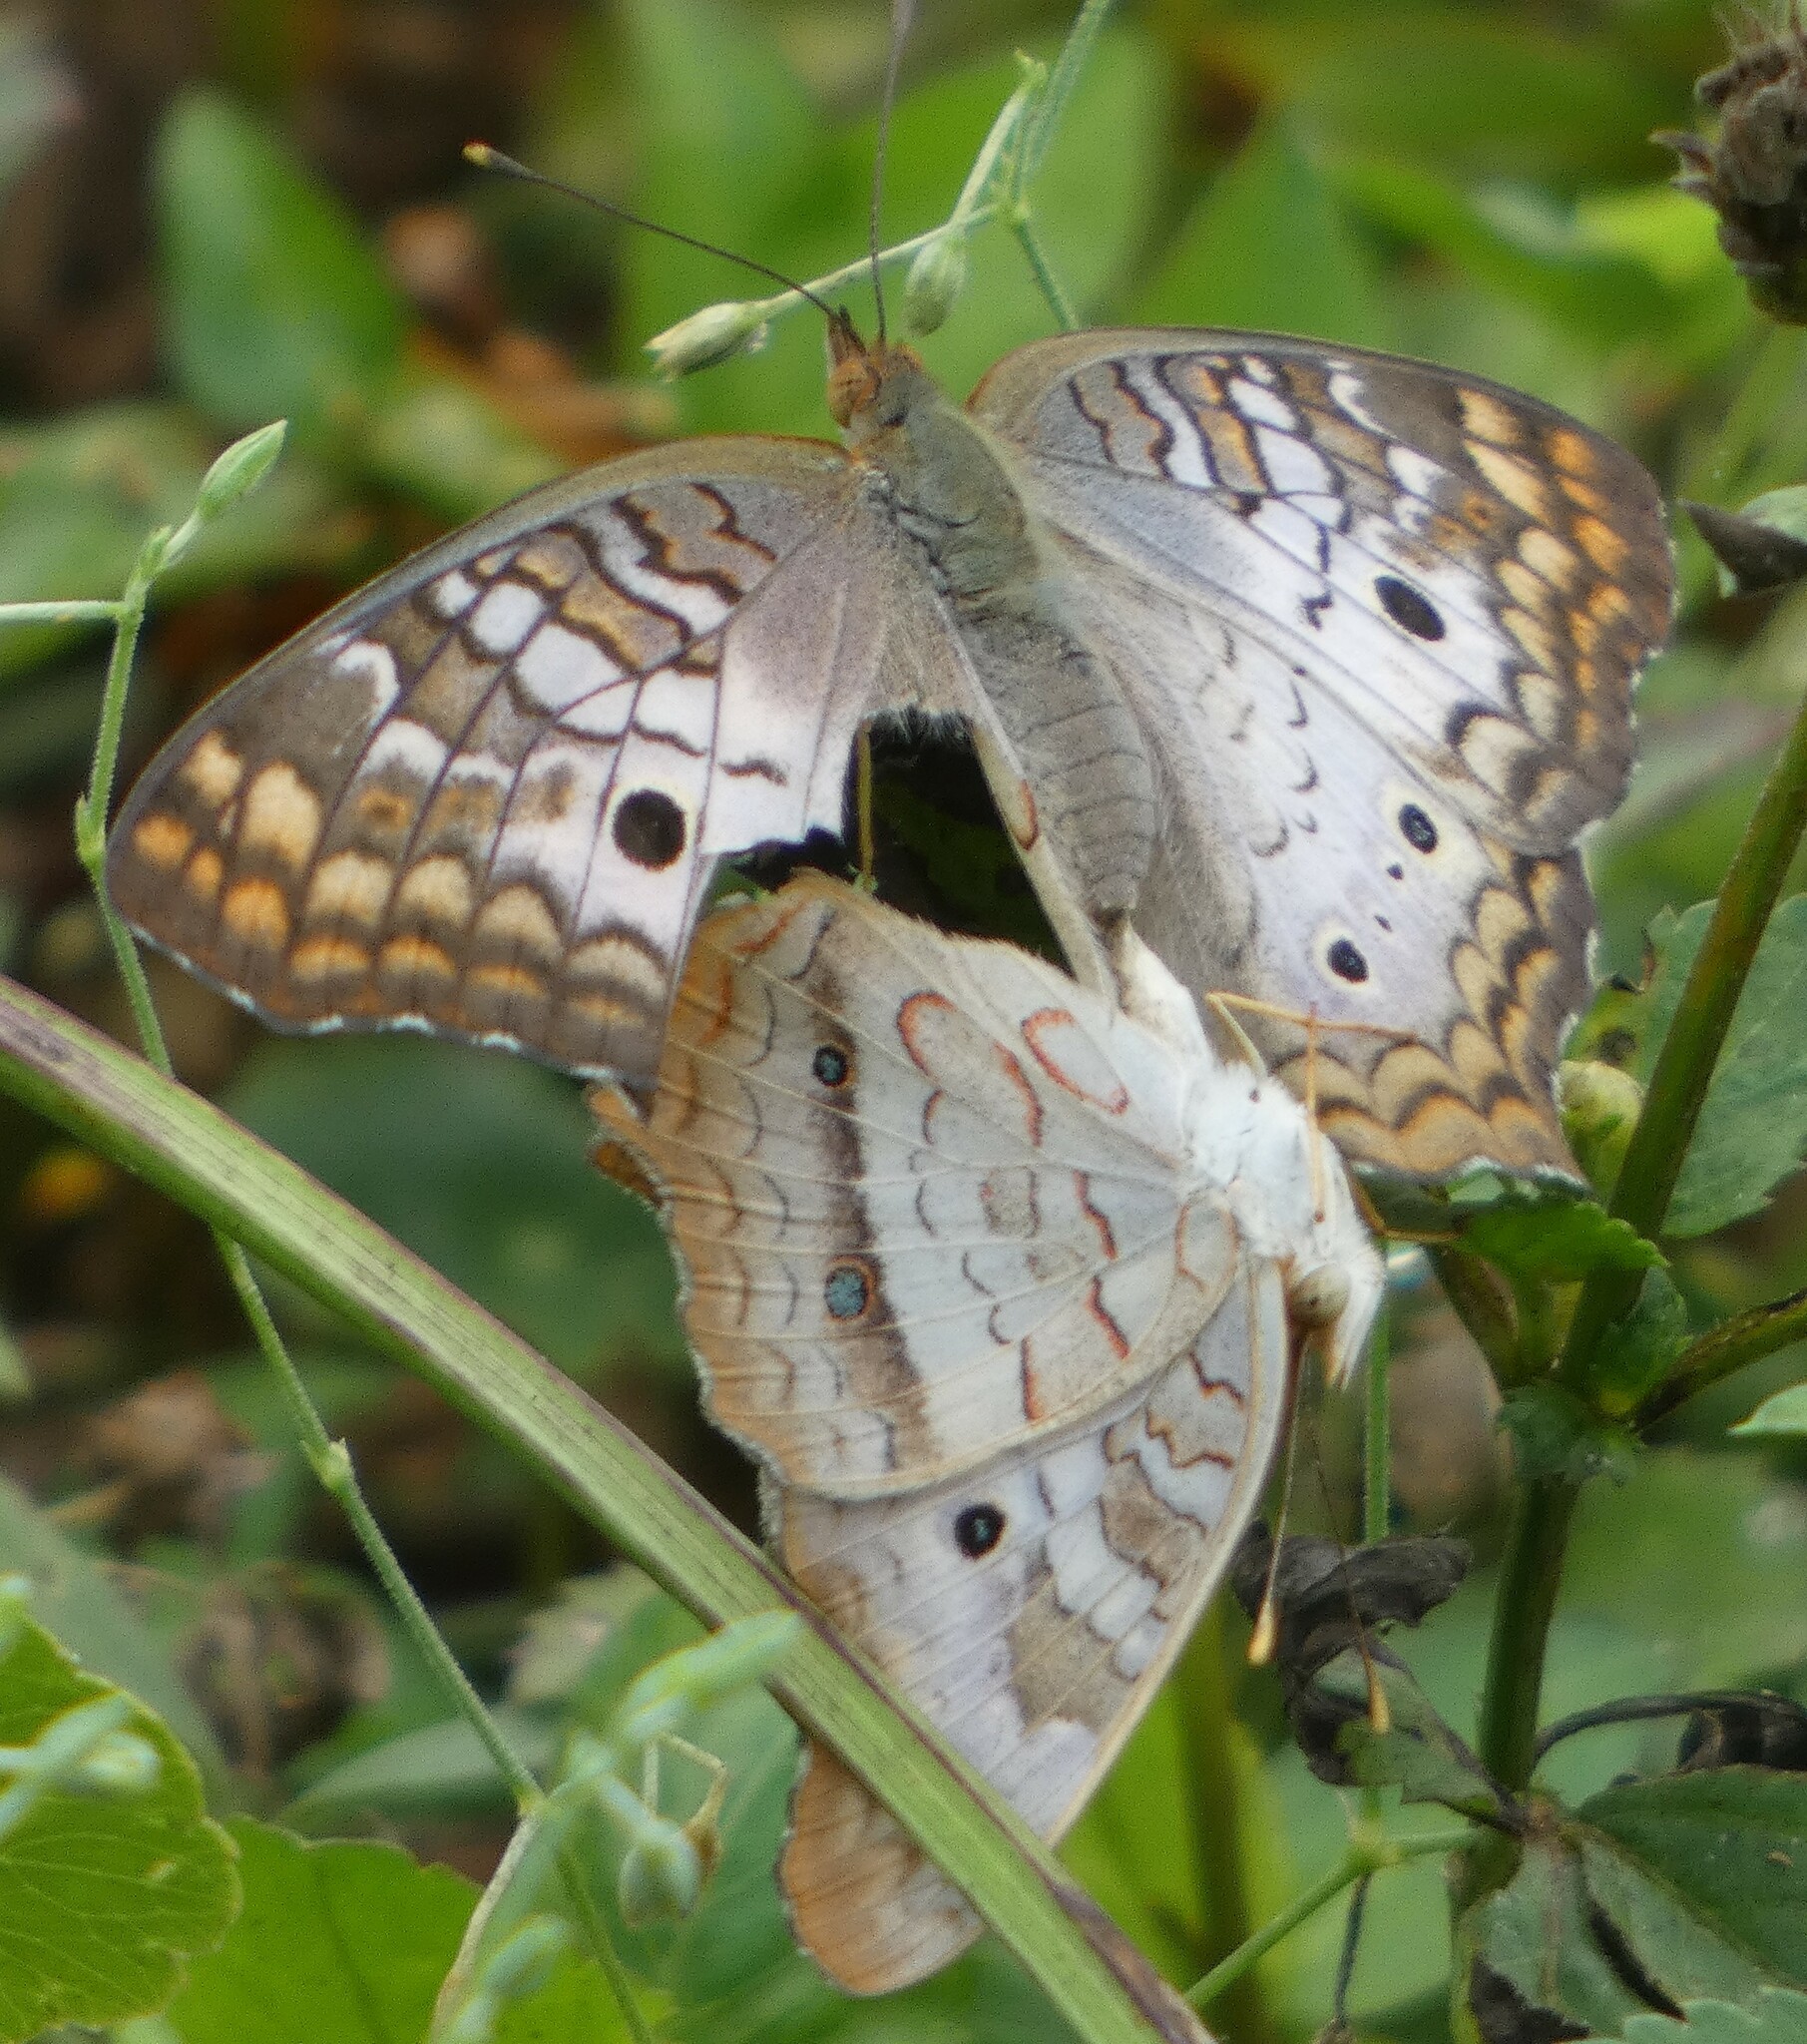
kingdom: Animalia
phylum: Arthropoda
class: Insecta
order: Lepidoptera
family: Nymphalidae
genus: Anartia
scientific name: Anartia jatrophae
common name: White peacock
